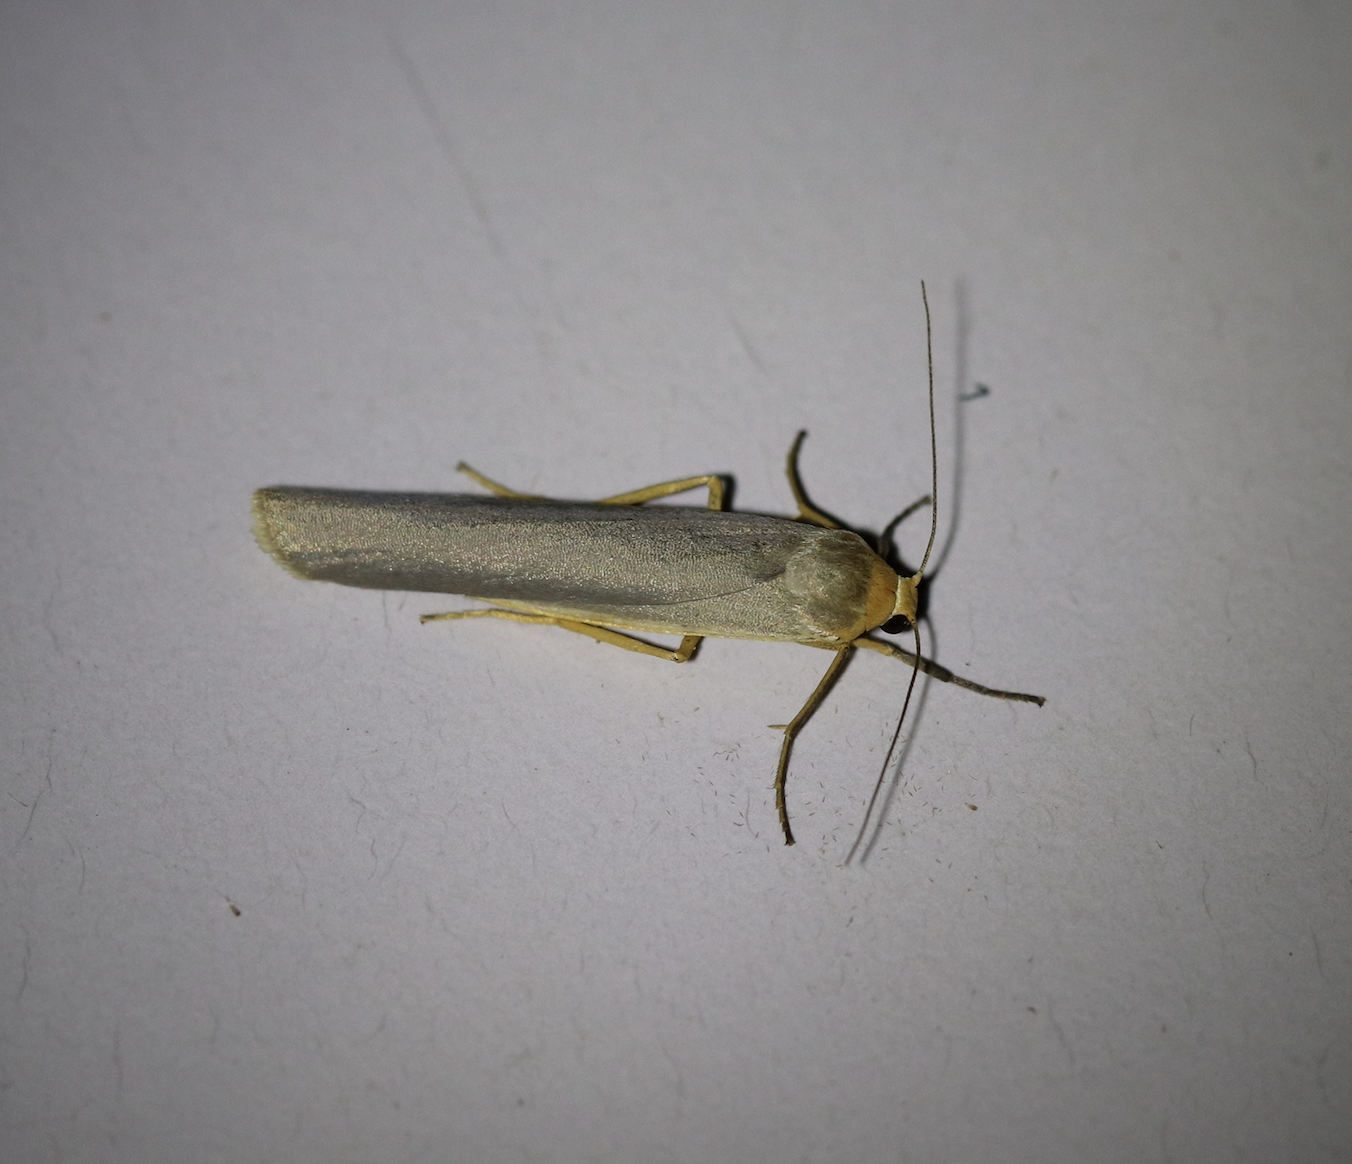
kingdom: Animalia
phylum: Arthropoda
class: Insecta
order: Lepidoptera
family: Erebidae
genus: Eilema
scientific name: Eilema caniola
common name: Hoary footman
